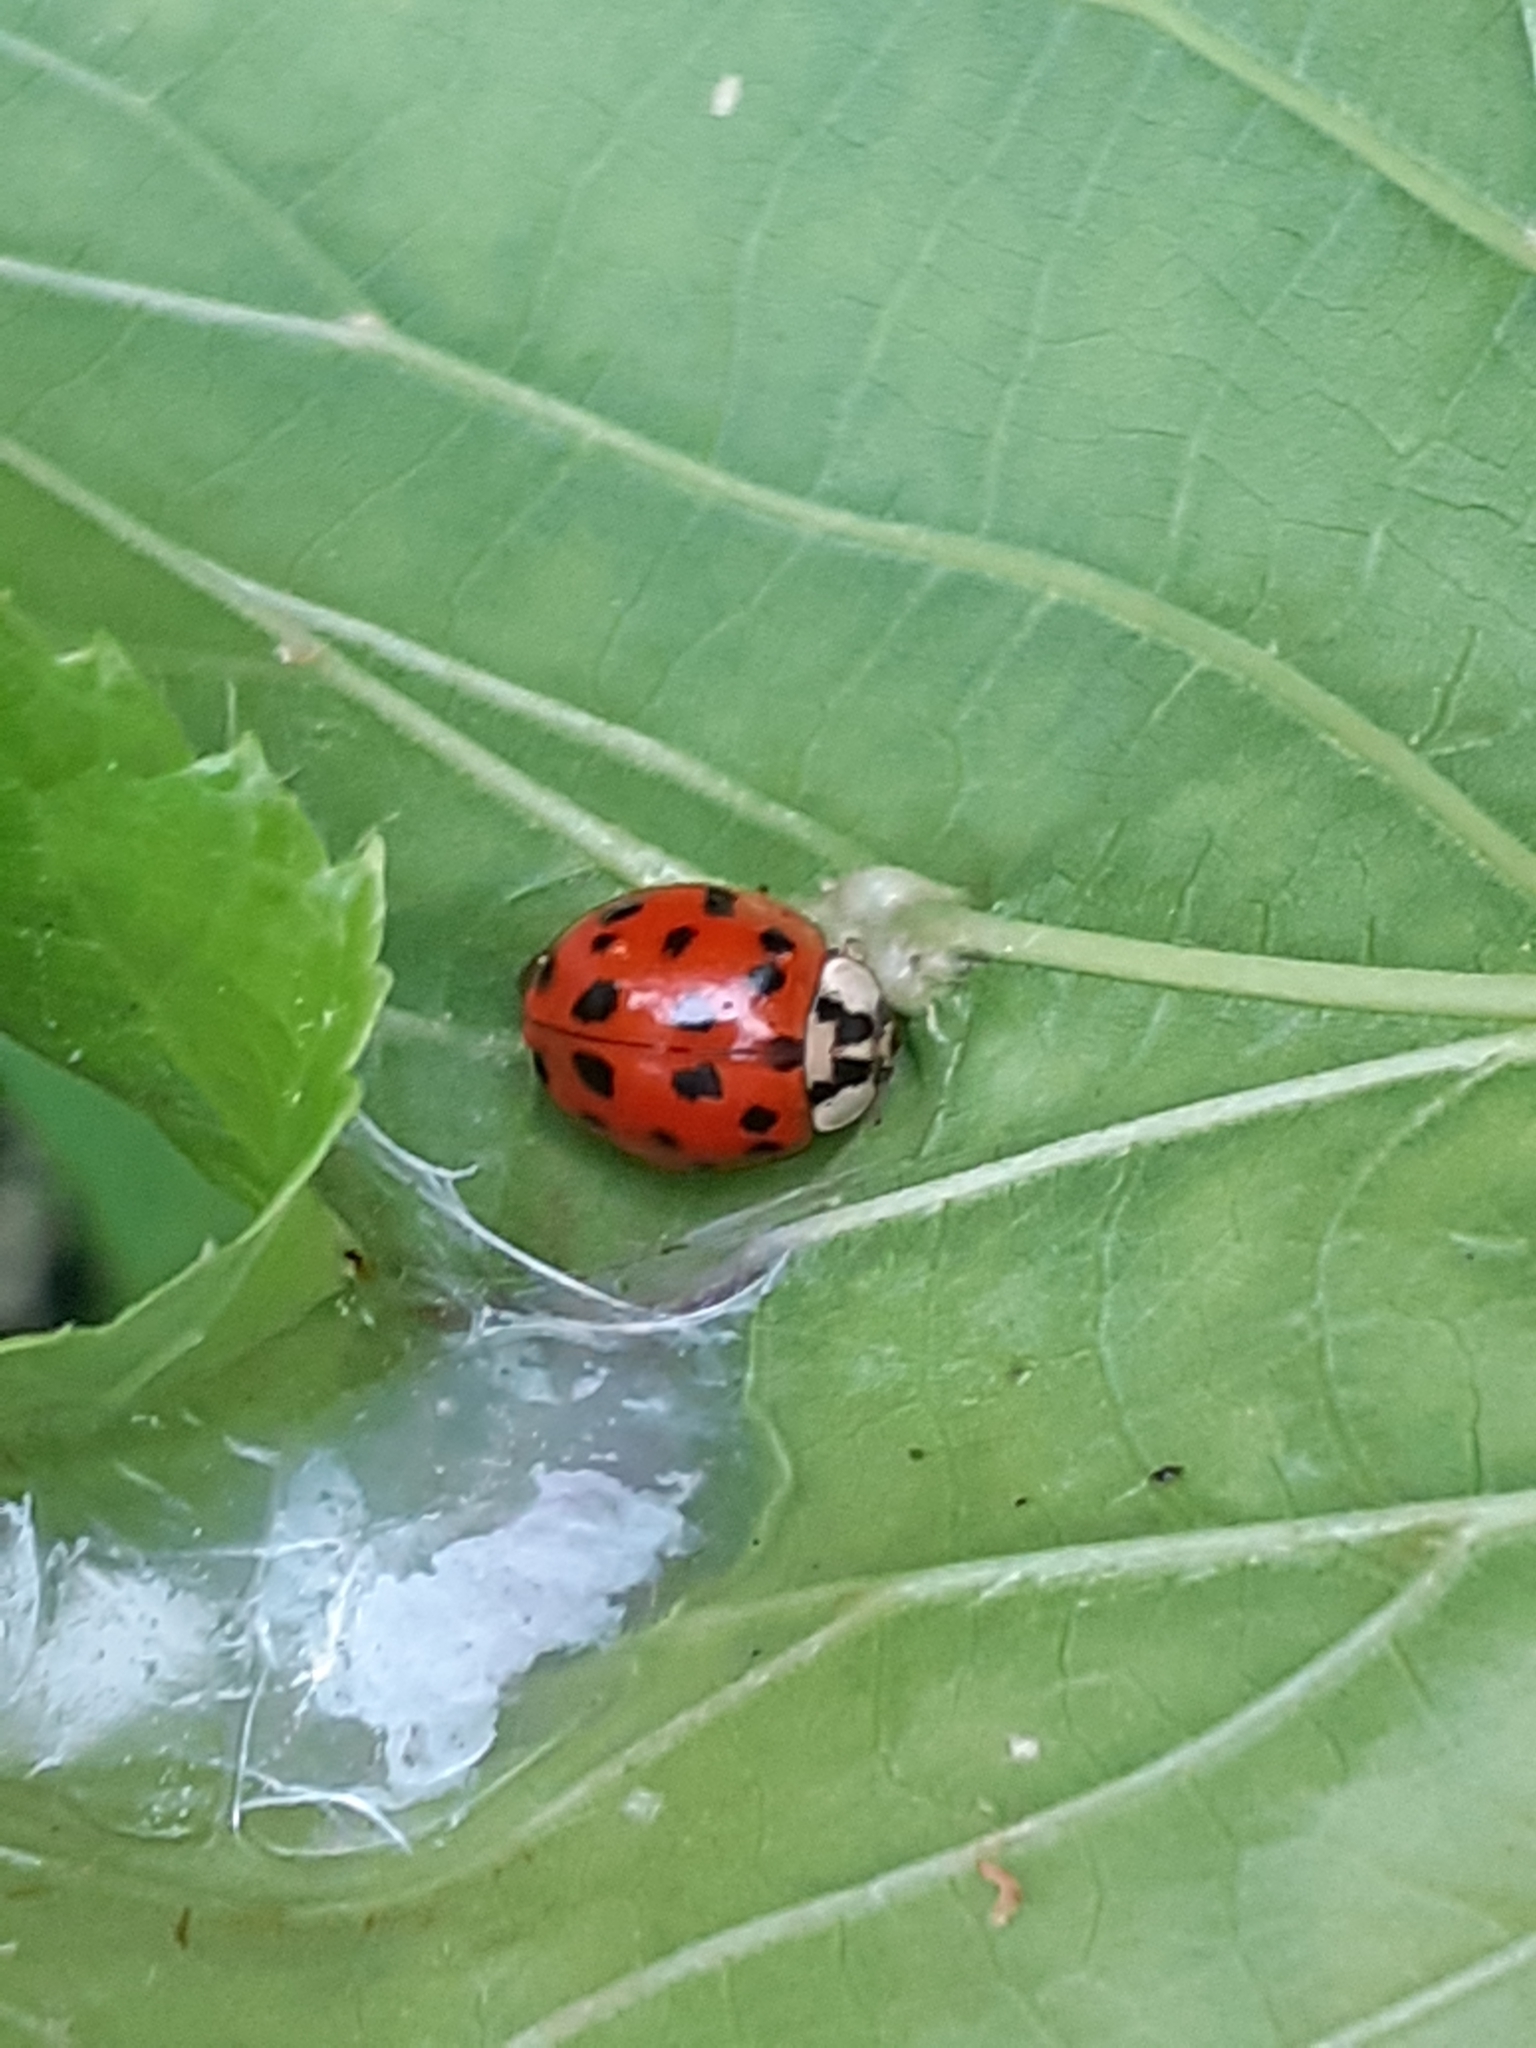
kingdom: Animalia
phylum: Arthropoda
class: Insecta
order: Coleoptera
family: Coccinellidae
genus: Harmonia
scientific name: Harmonia axyridis
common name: Harlequin ladybird
